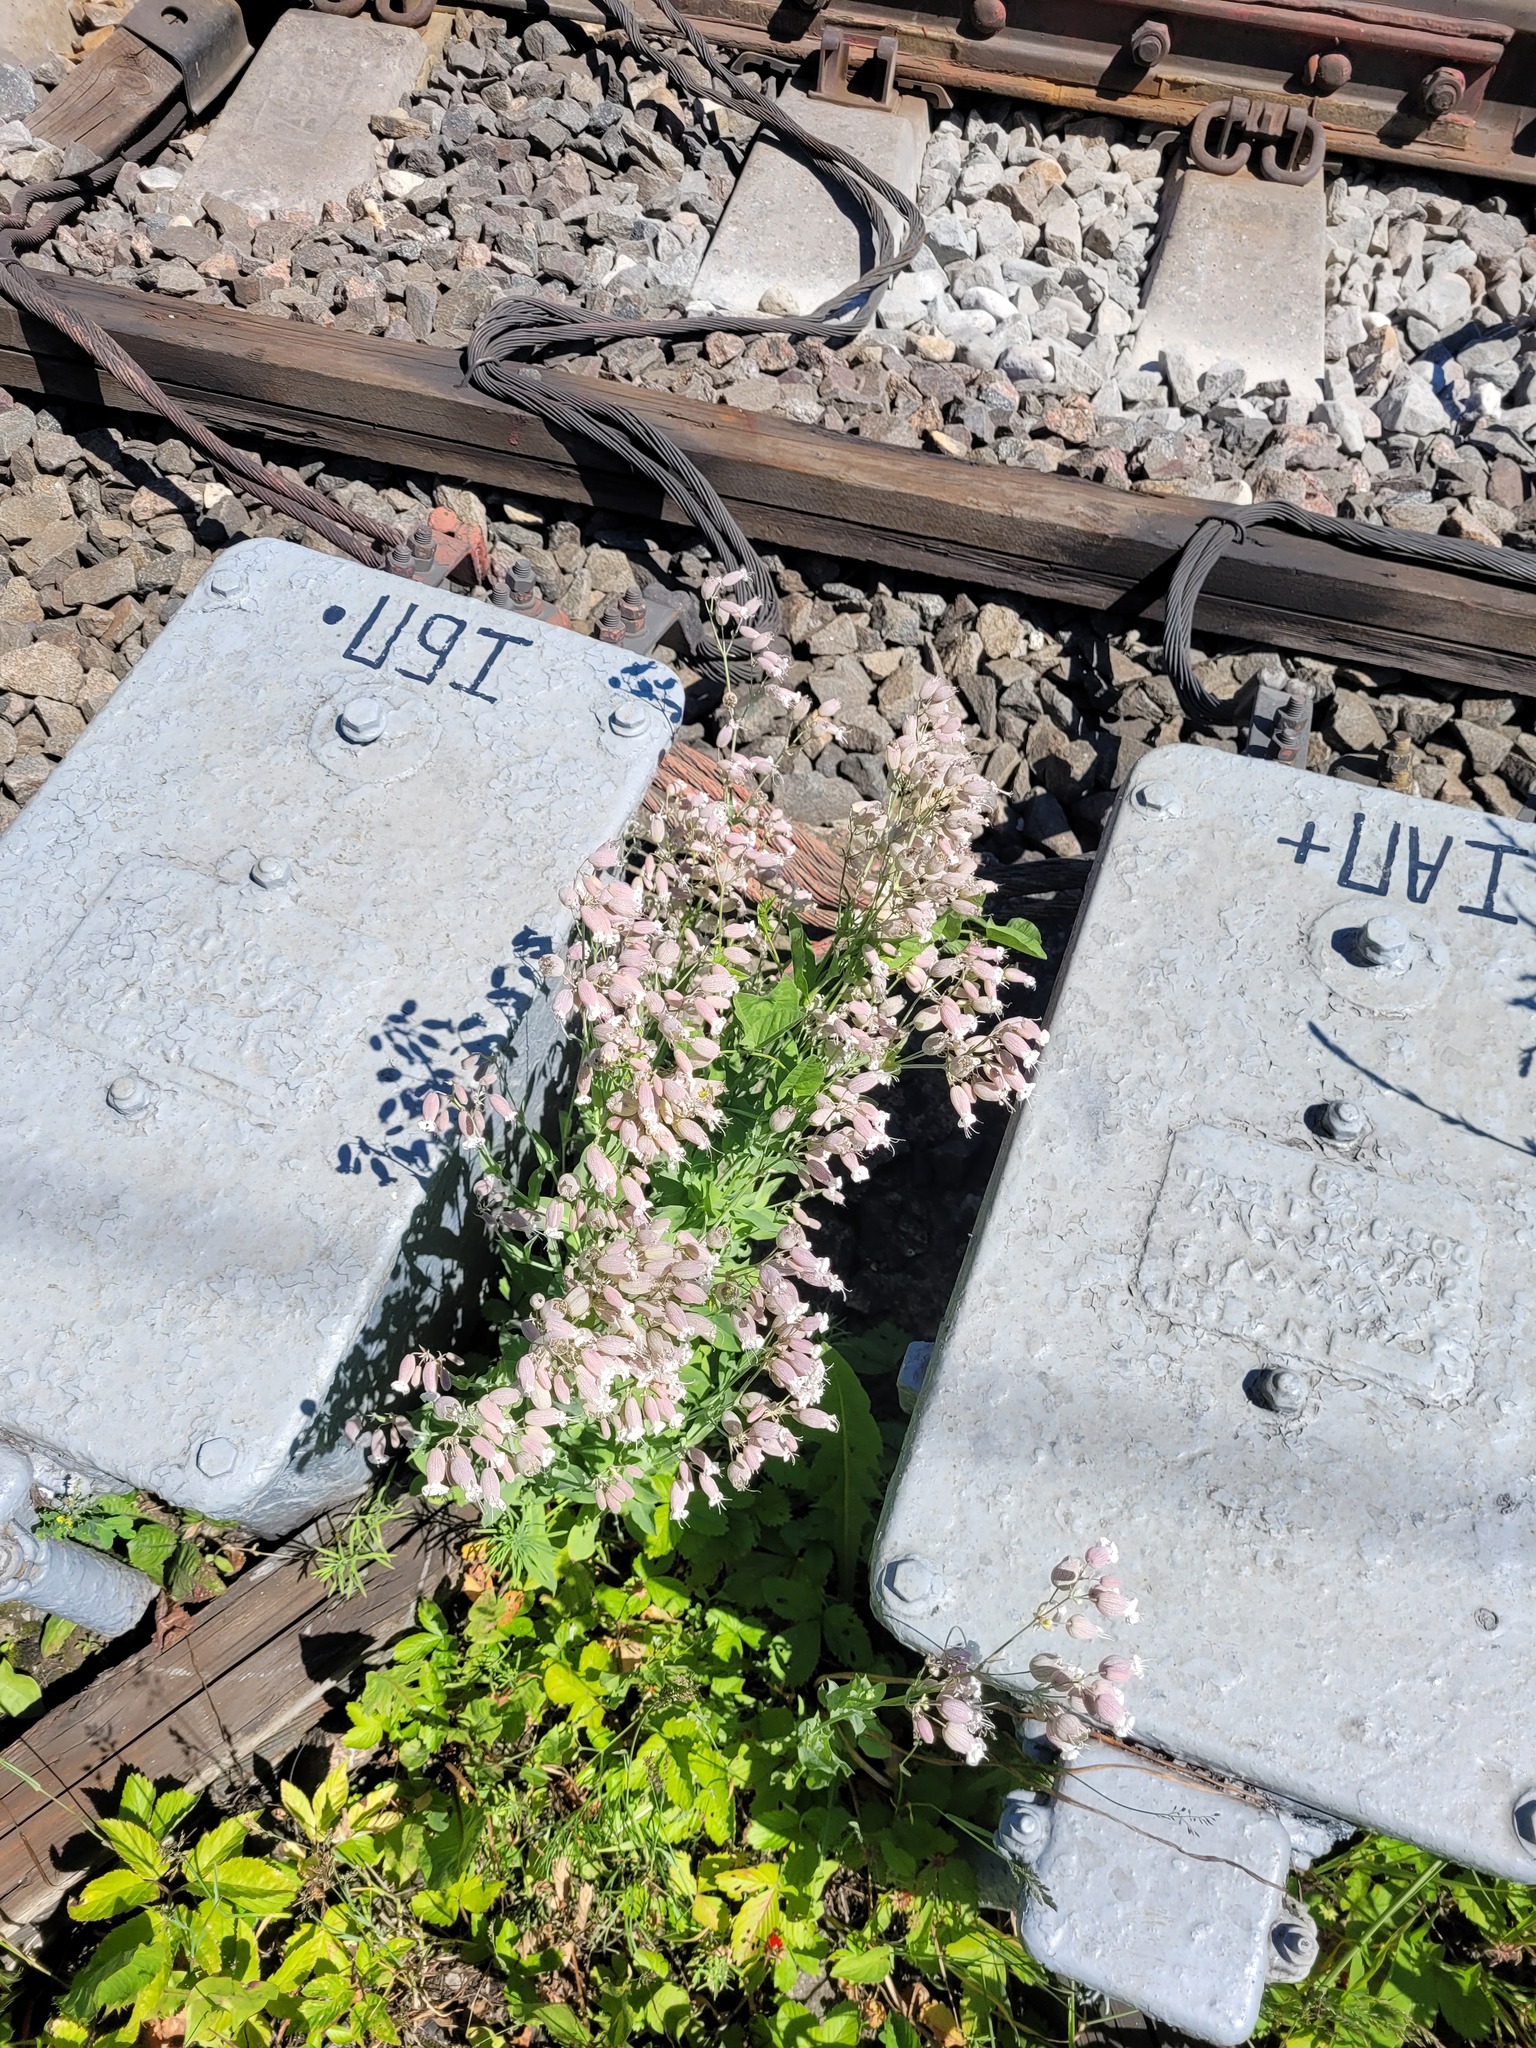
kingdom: Plantae
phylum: Tracheophyta
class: Magnoliopsida
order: Caryophyllales
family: Caryophyllaceae
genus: Silene
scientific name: Silene vulgaris
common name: Bladder campion
